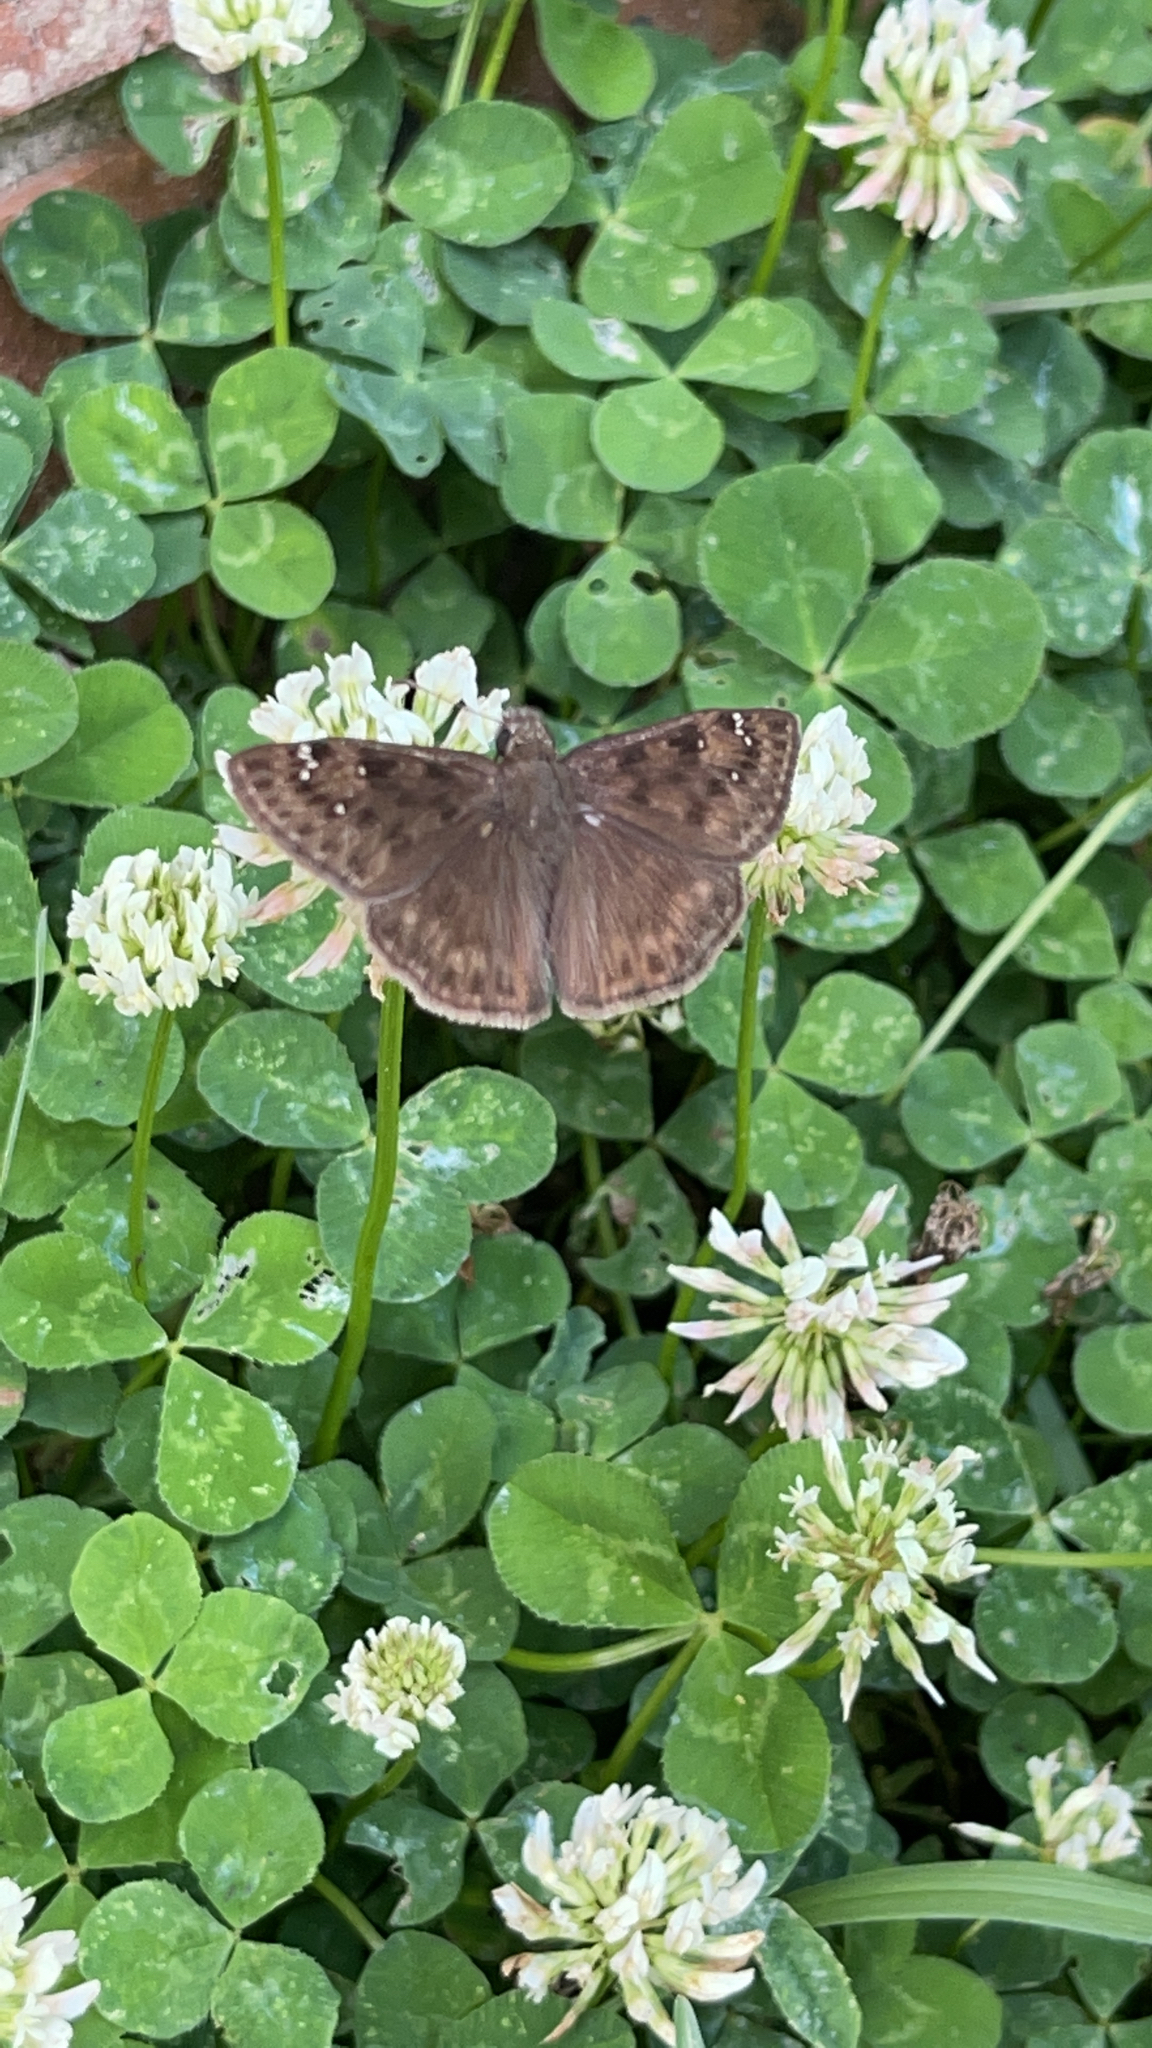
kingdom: Animalia
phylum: Arthropoda
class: Insecta
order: Lepidoptera
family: Hesperiidae
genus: Erynnis
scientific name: Erynnis horatius
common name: Horace's duskywing
